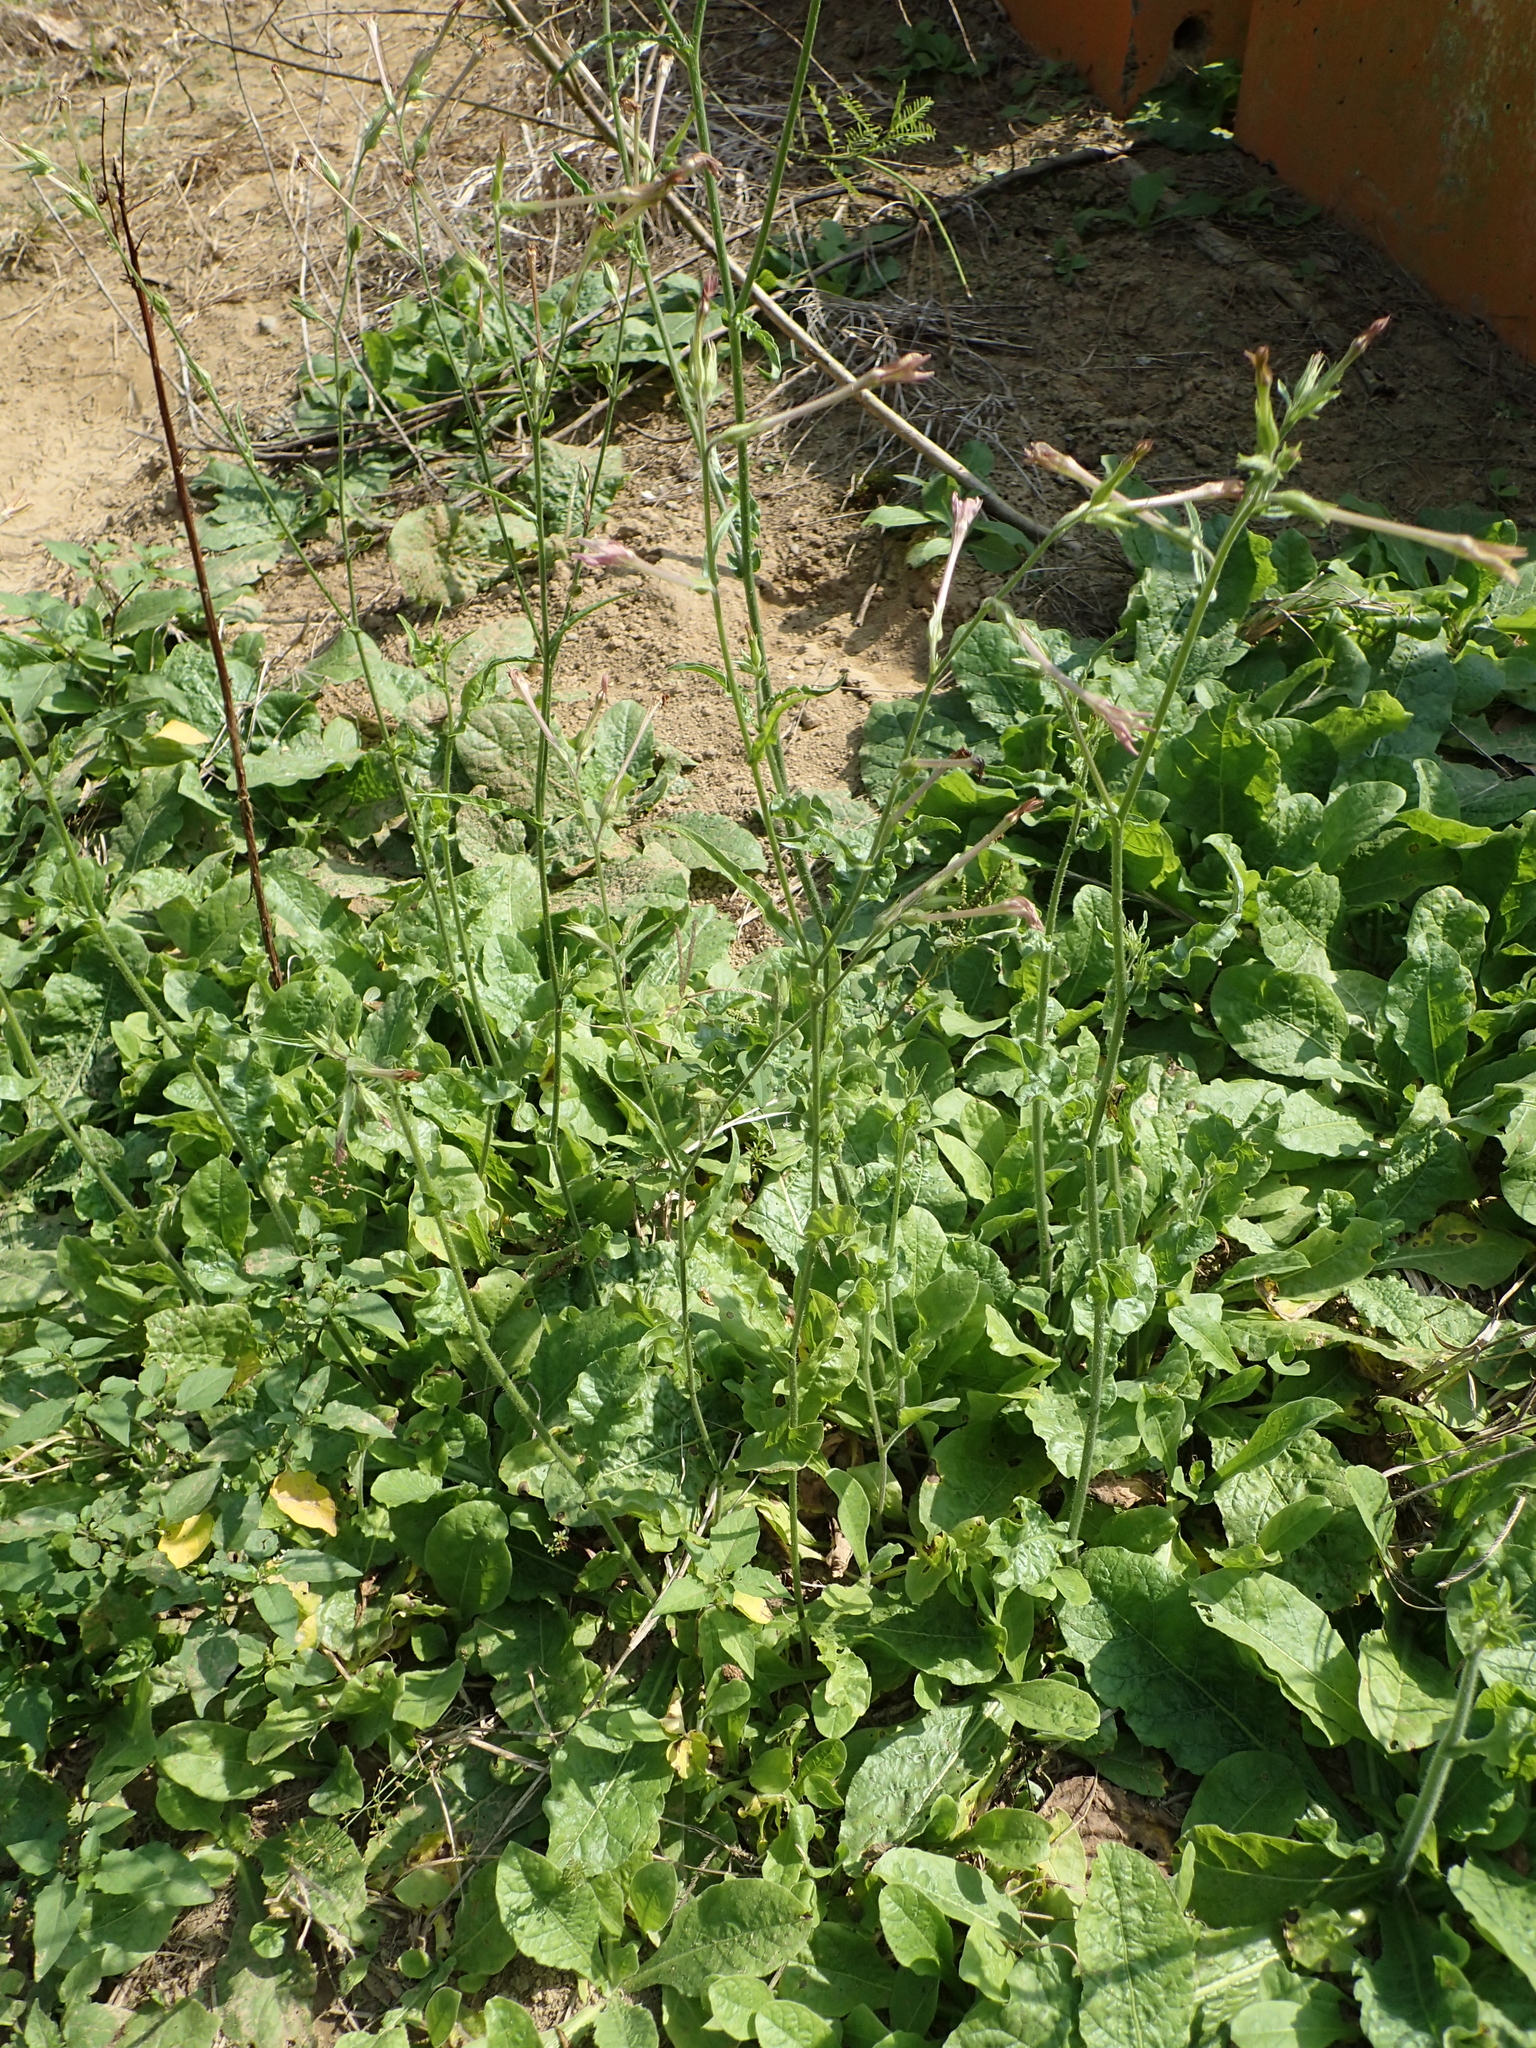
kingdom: Plantae
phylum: Tracheophyta
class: Magnoliopsida
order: Solanales
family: Solanaceae
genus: Nicotiana
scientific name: Nicotiana plumbaginifolia
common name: Tex-mex tobacco
